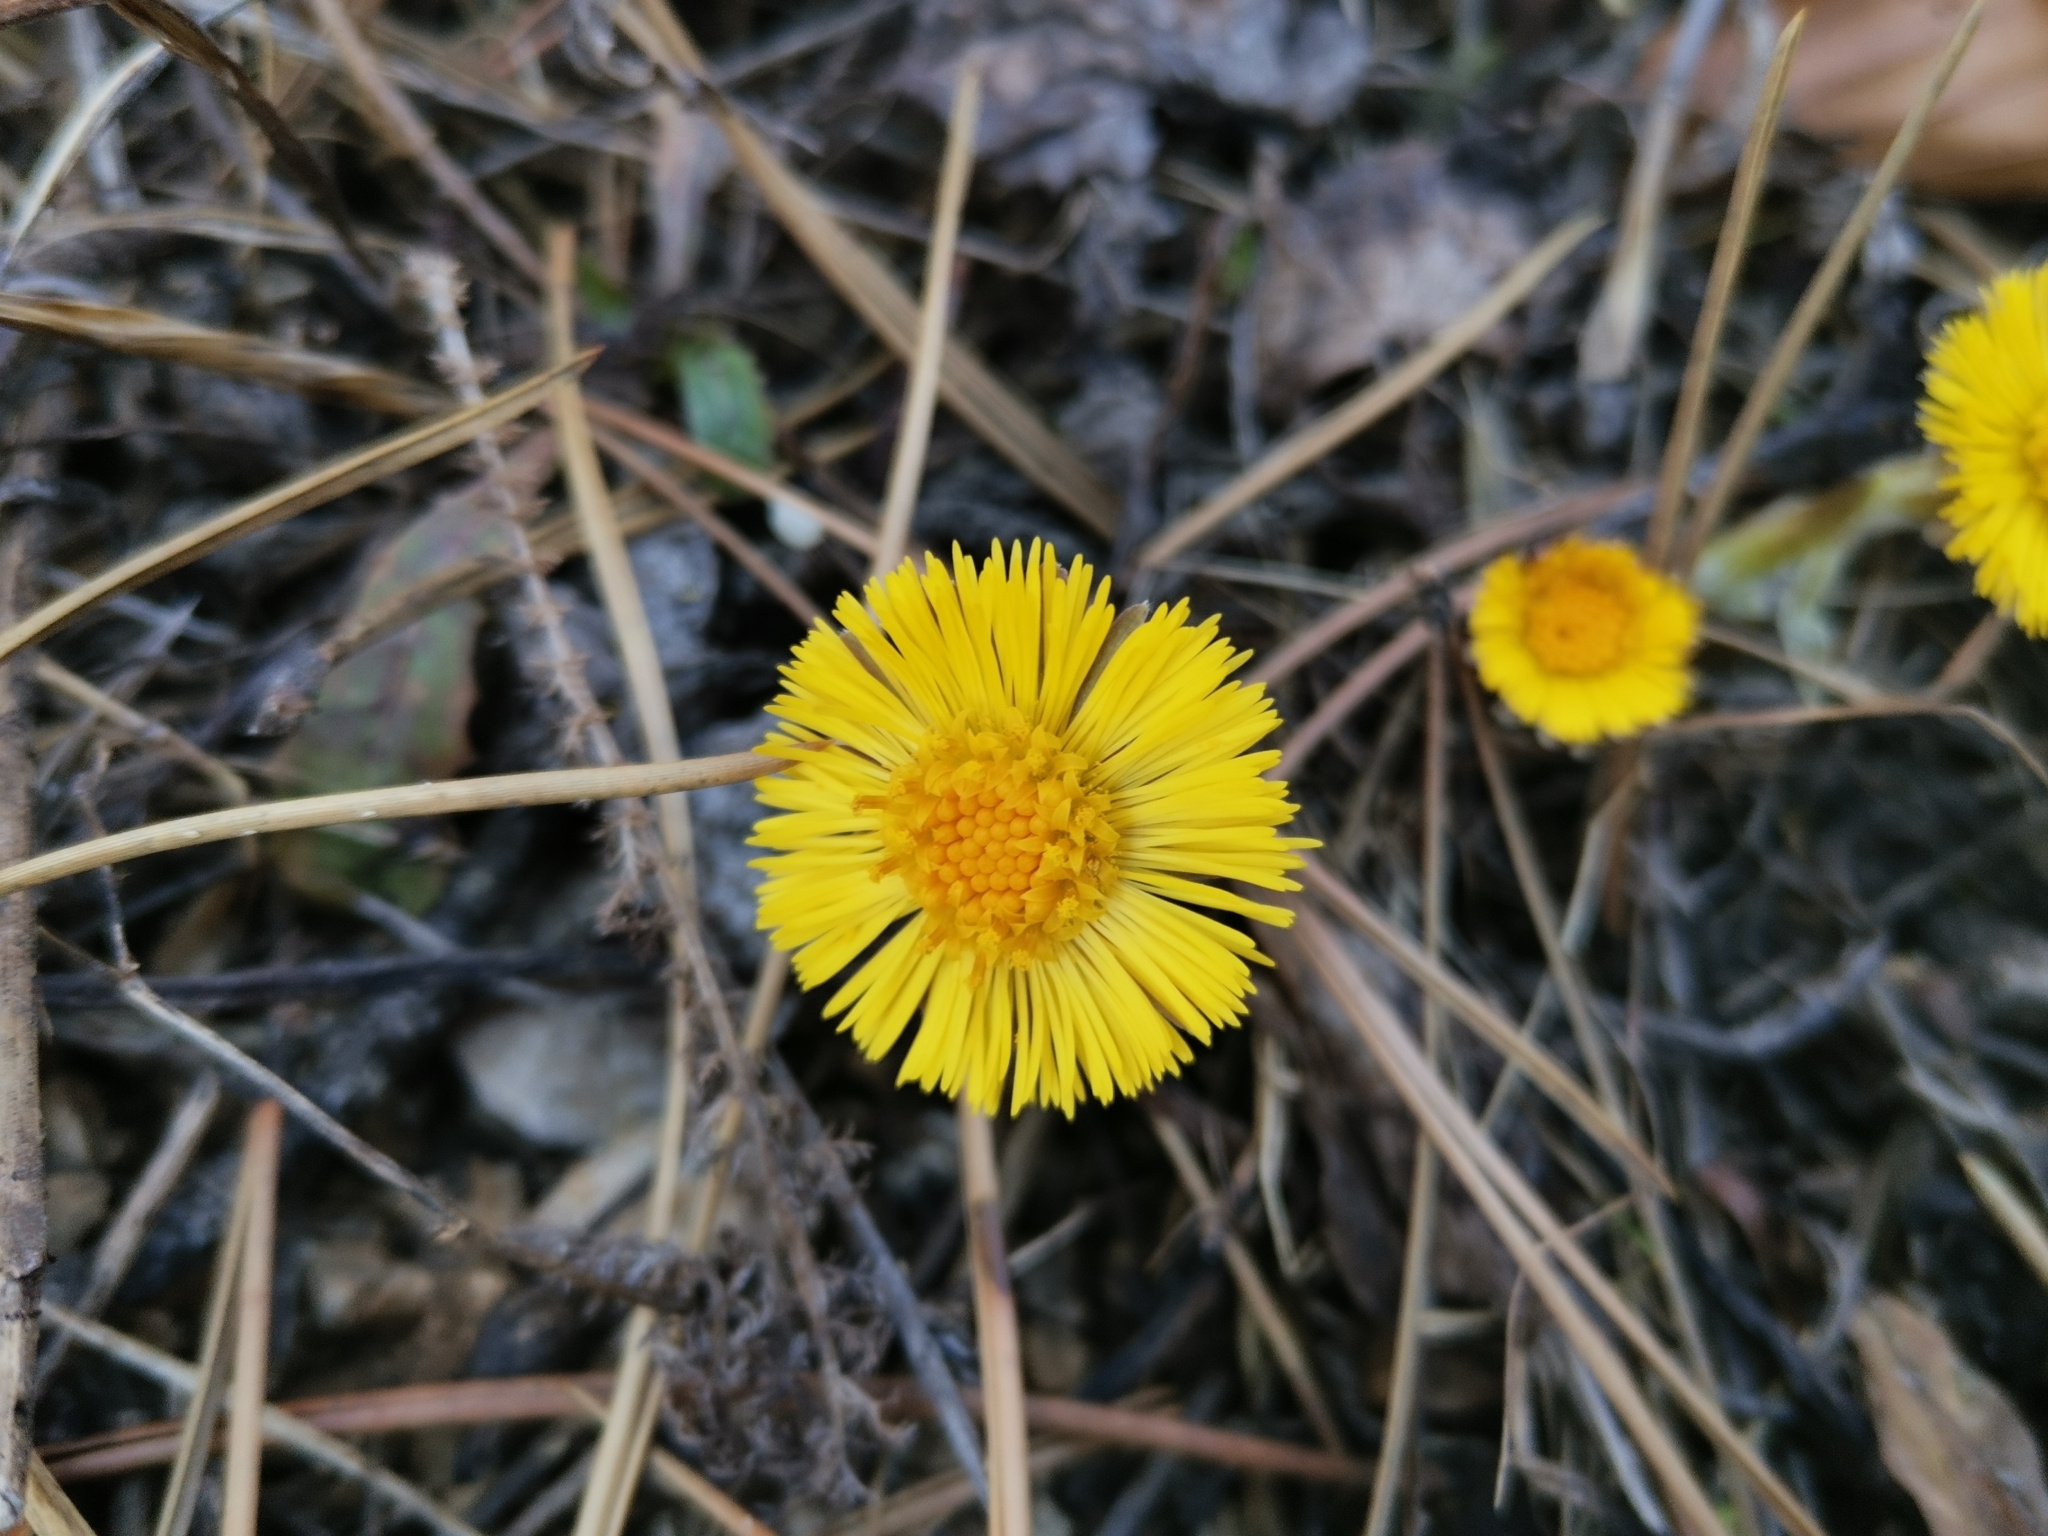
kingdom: Plantae
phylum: Tracheophyta
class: Magnoliopsida
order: Asterales
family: Asteraceae
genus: Tussilago
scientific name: Tussilago farfara
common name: Coltsfoot
